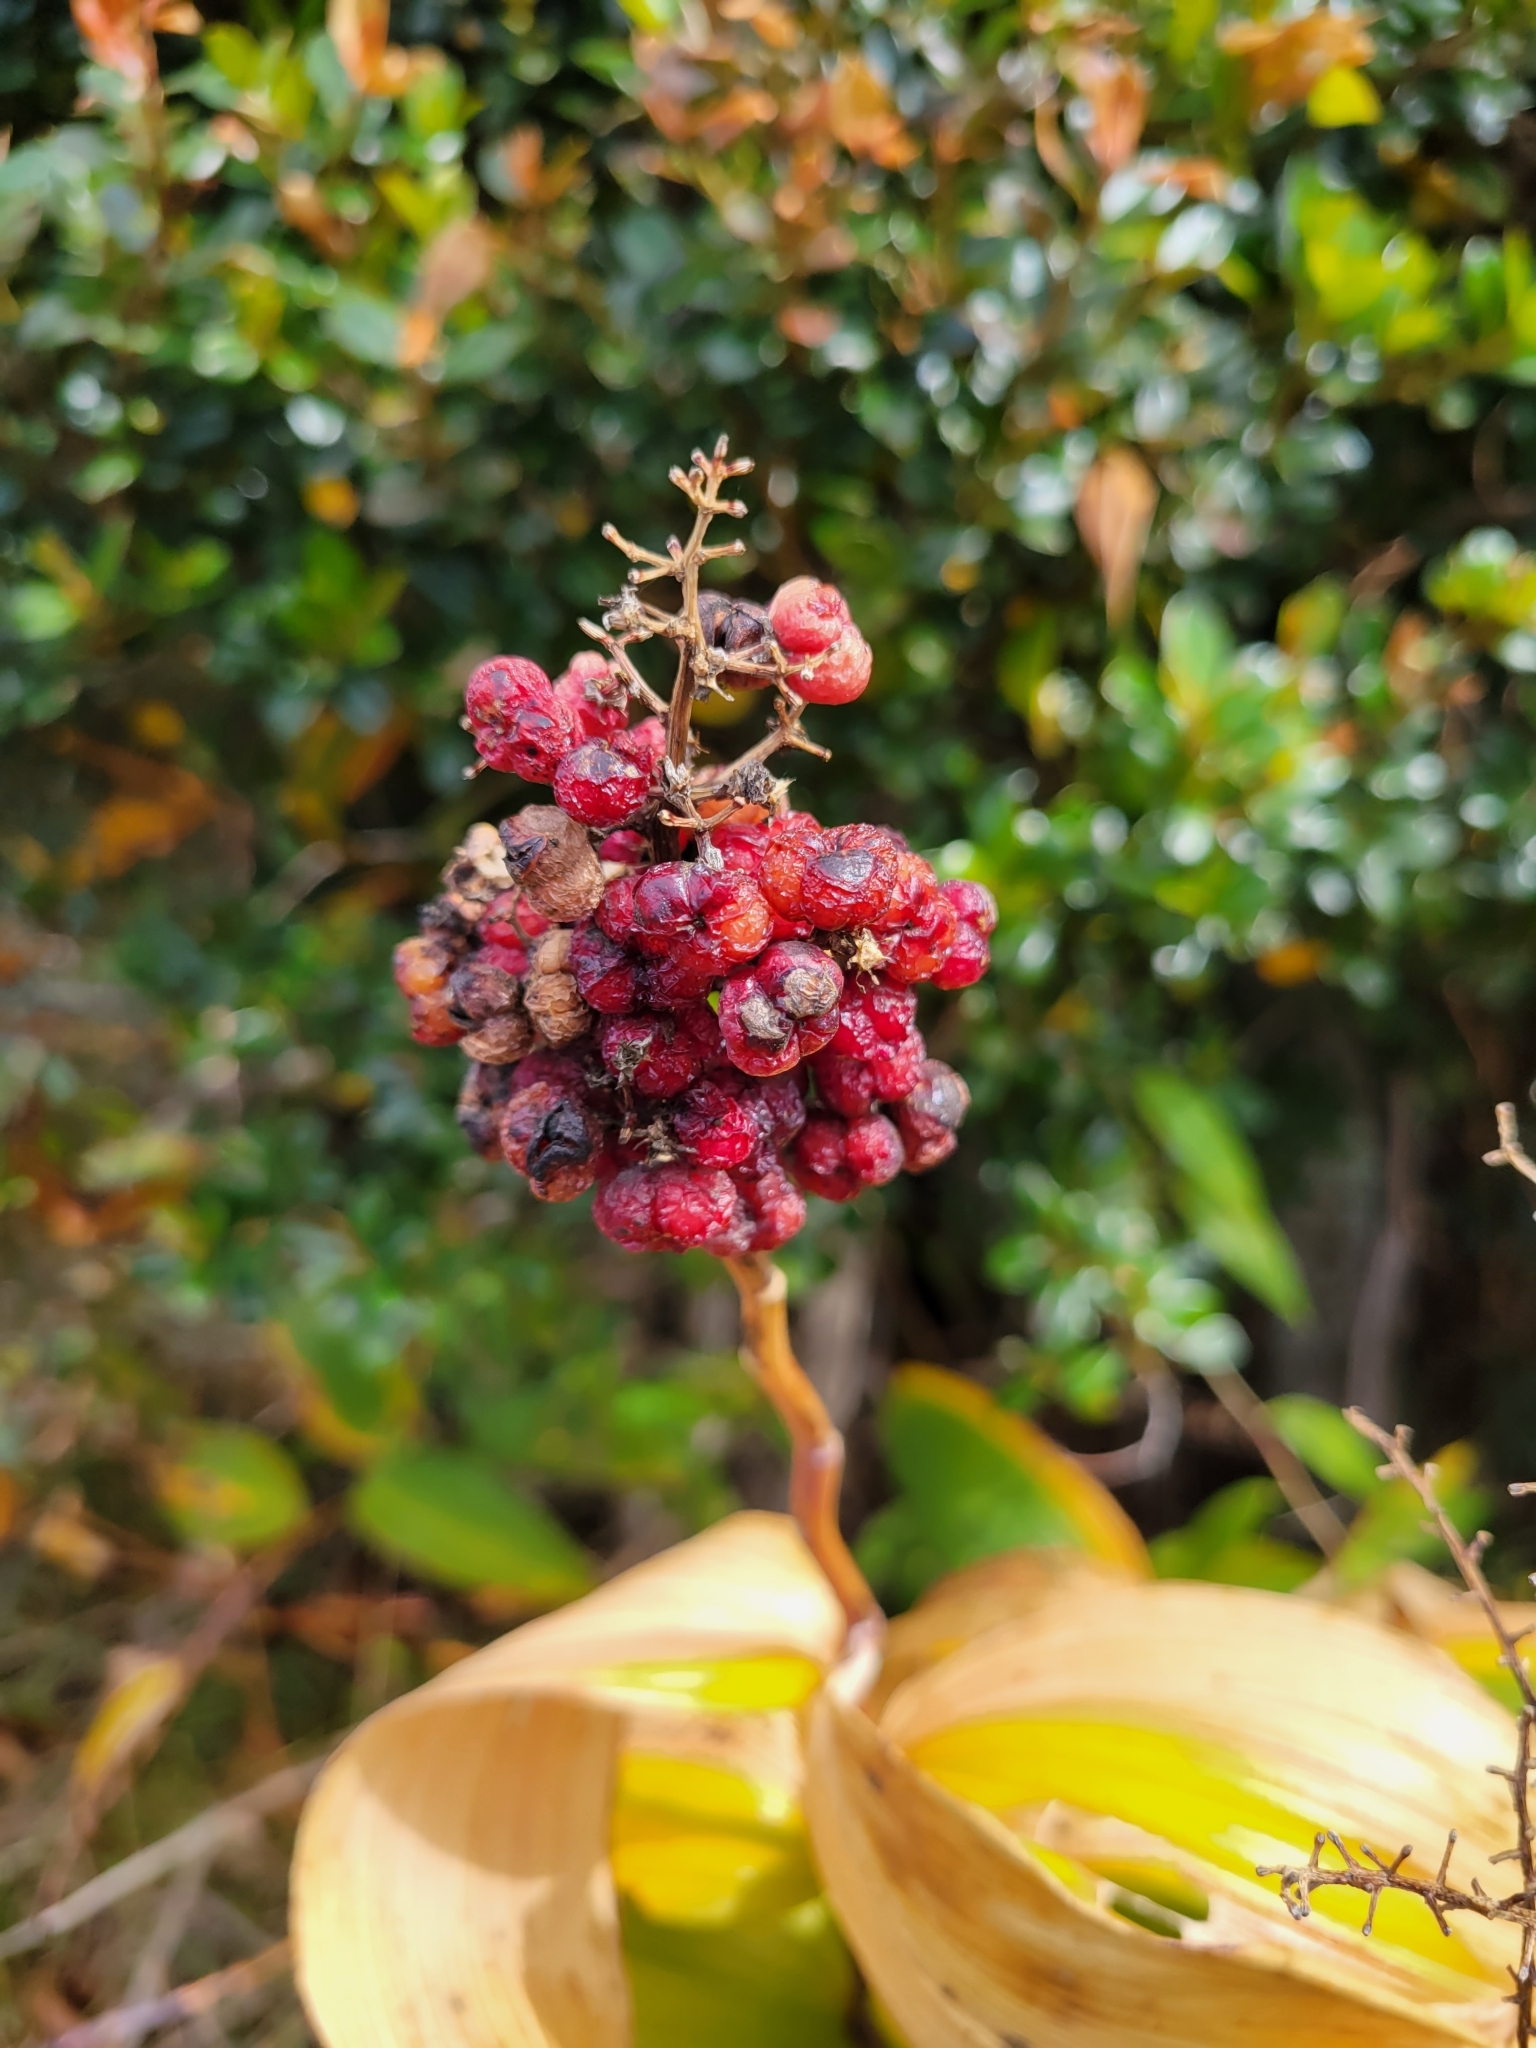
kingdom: Plantae
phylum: Tracheophyta
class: Liliopsida
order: Asparagales
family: Asparagaceae
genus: Maianthemum
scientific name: Maianthemum gigas
